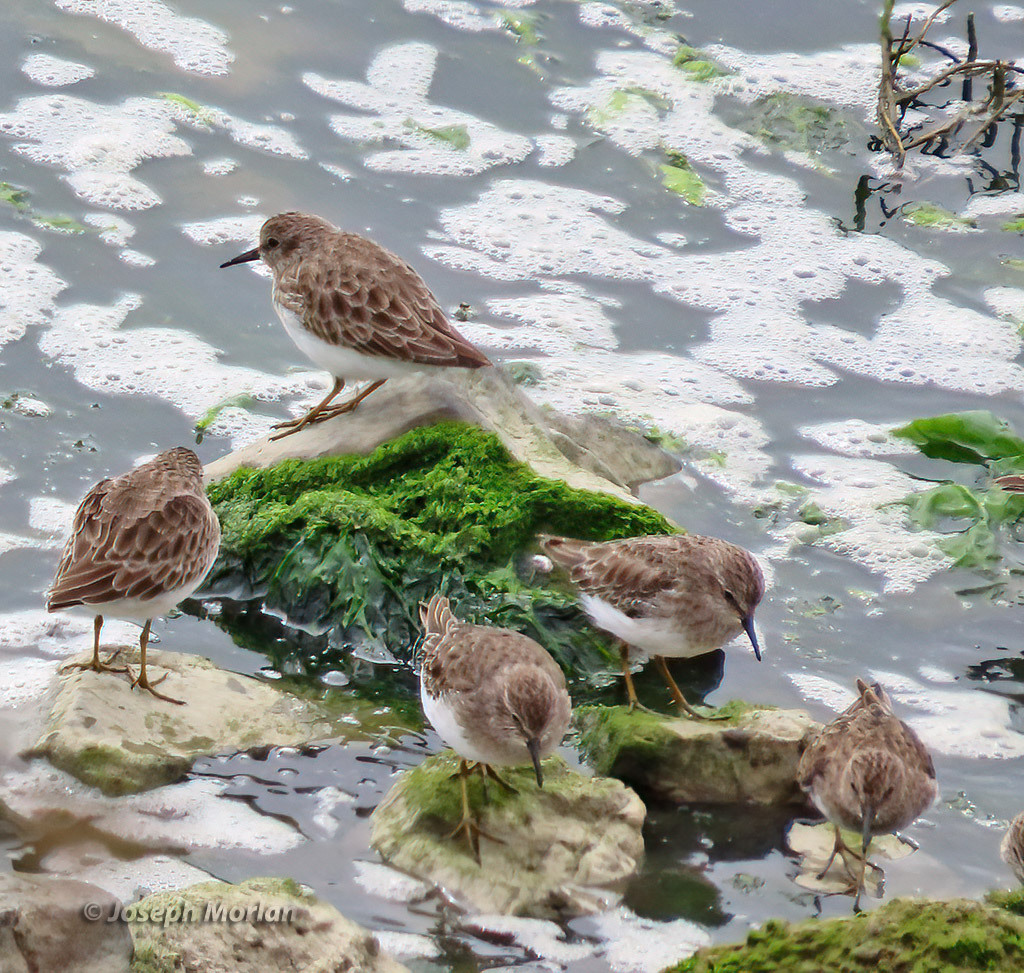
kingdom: Animalia
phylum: Chordata
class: Aves
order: Charadriiformes
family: Scolopacidae
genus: Calidris
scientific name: Calidris minutilla
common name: Least sandpiper
